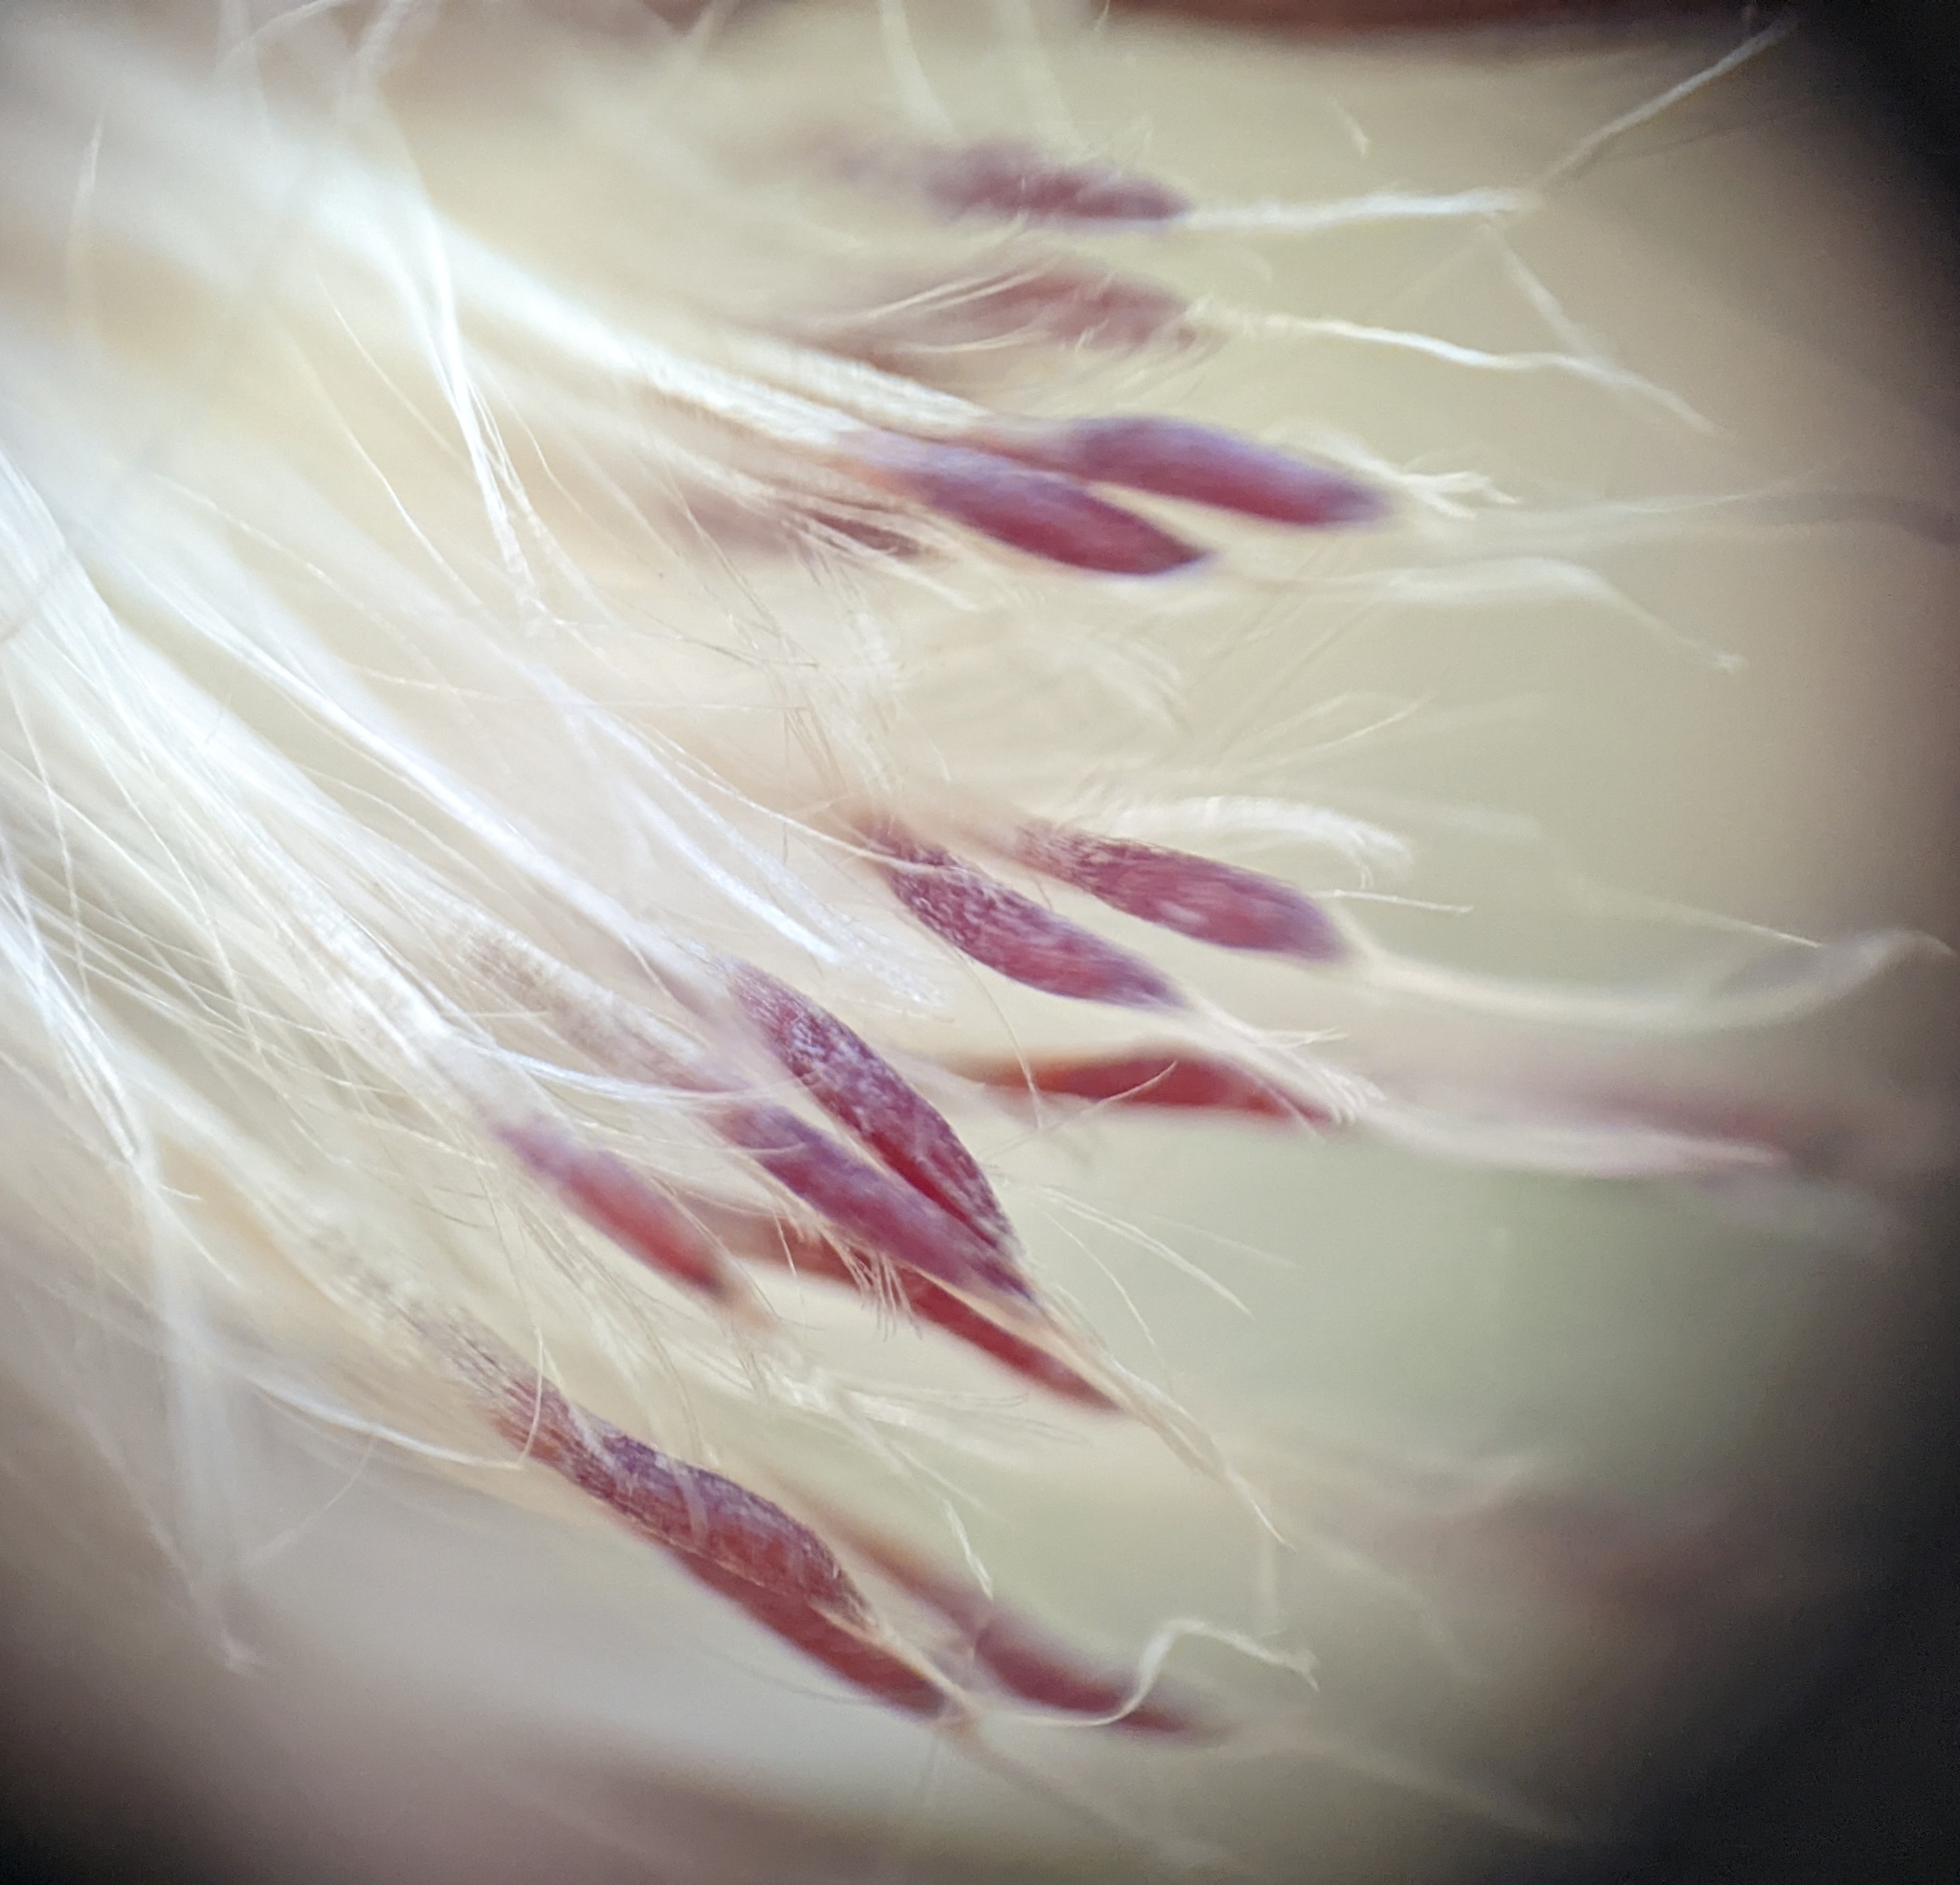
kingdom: Plantae
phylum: Tracheophyta
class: Liliopsida
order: Poales
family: Bromeliaceae
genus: Tillandsia
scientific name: Tillandsia utriculata
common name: Wild pine
